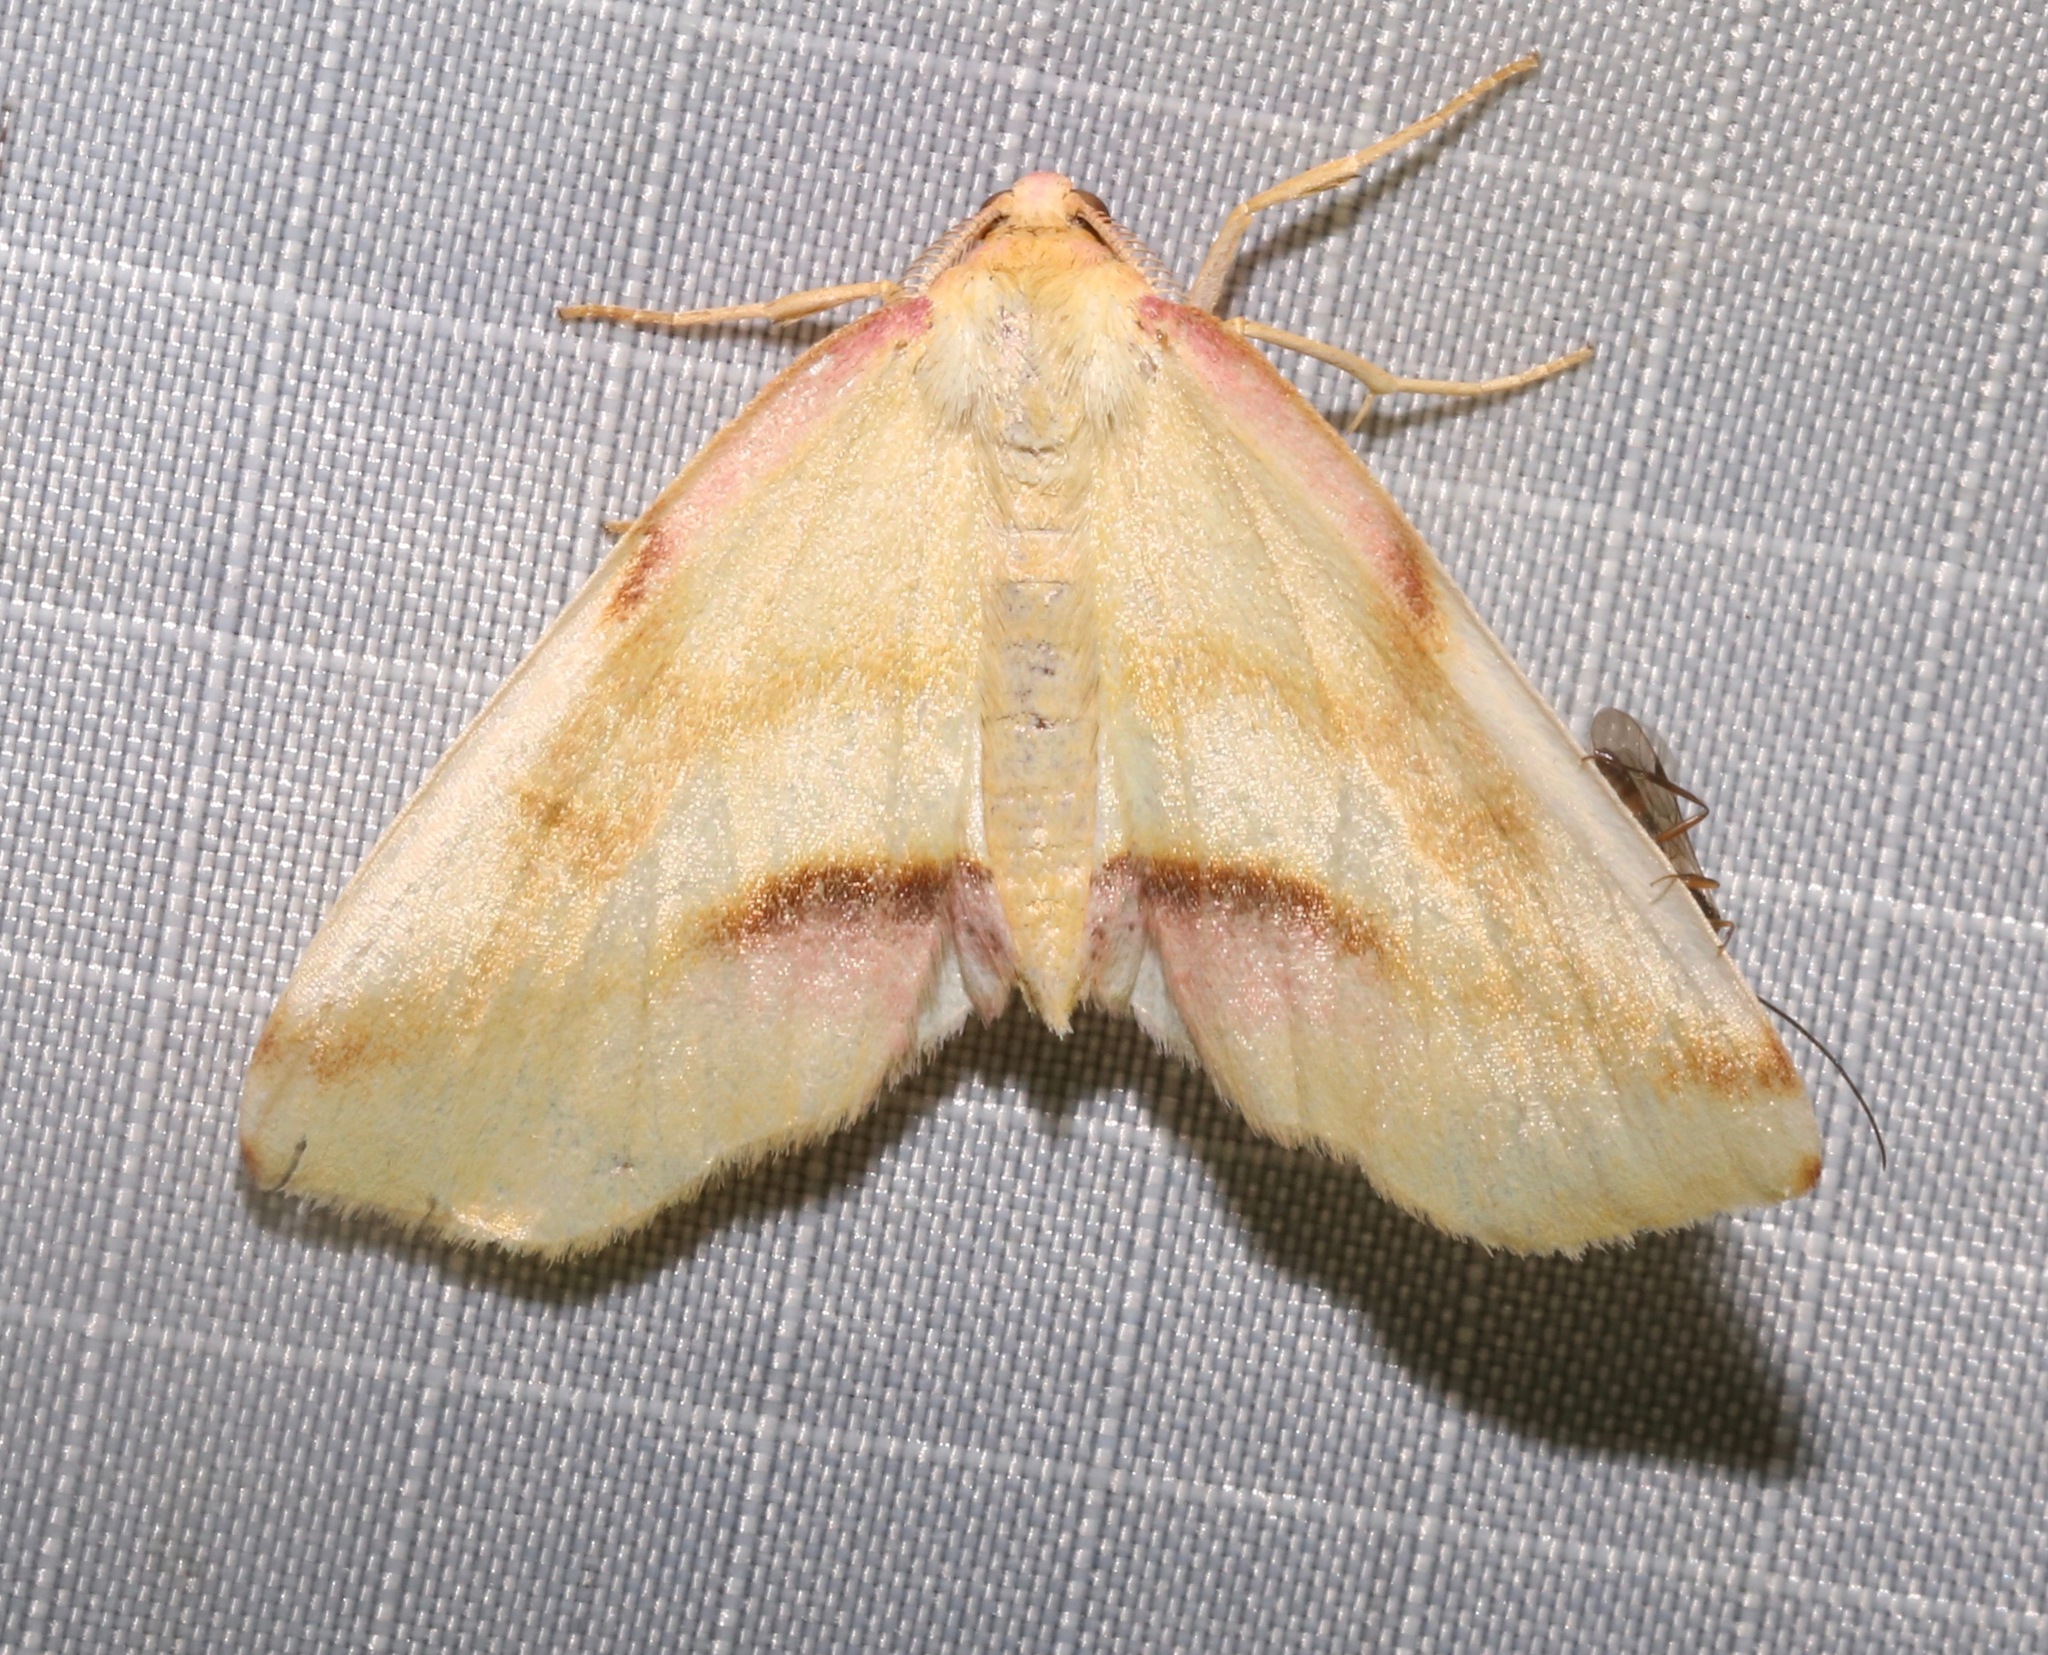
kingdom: Animalia
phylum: Arthropoda
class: Insecta
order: Lepidoptera
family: Geometridae
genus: Plagodis
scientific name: Plagodis serinaria
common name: Lemon plagodis
